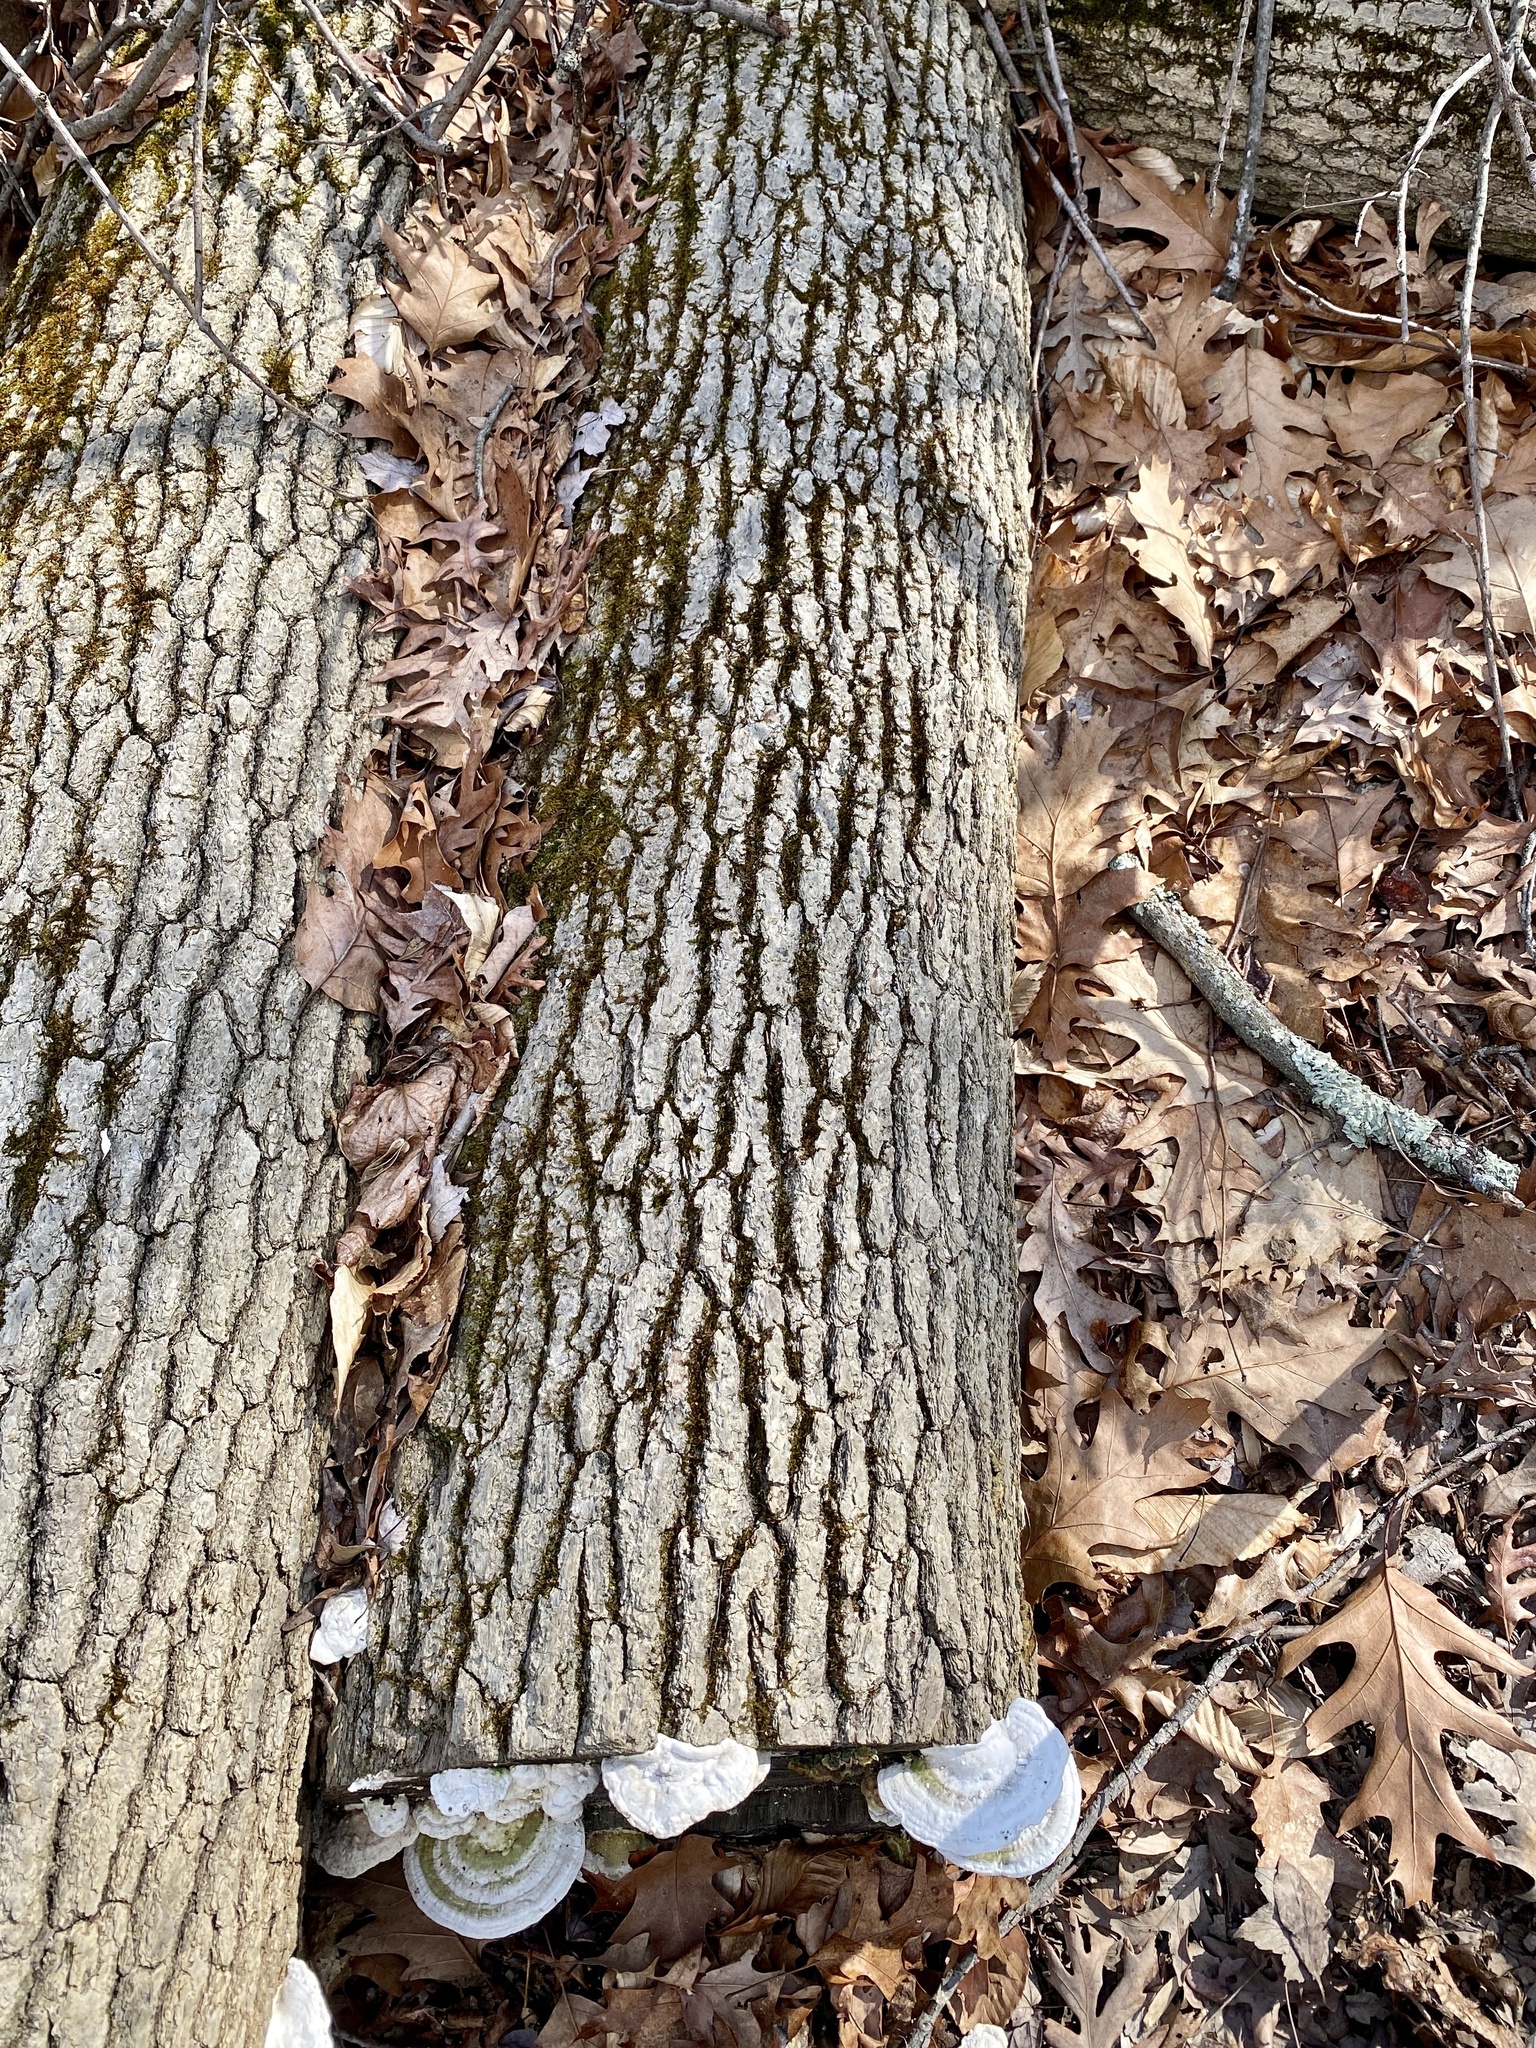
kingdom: Fungi
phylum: Basidiomycota
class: Agaricomycetes
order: Polyporales
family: Polyporaceae
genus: Trametes
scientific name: Trametes gibbosa
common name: Lumpy bracket
